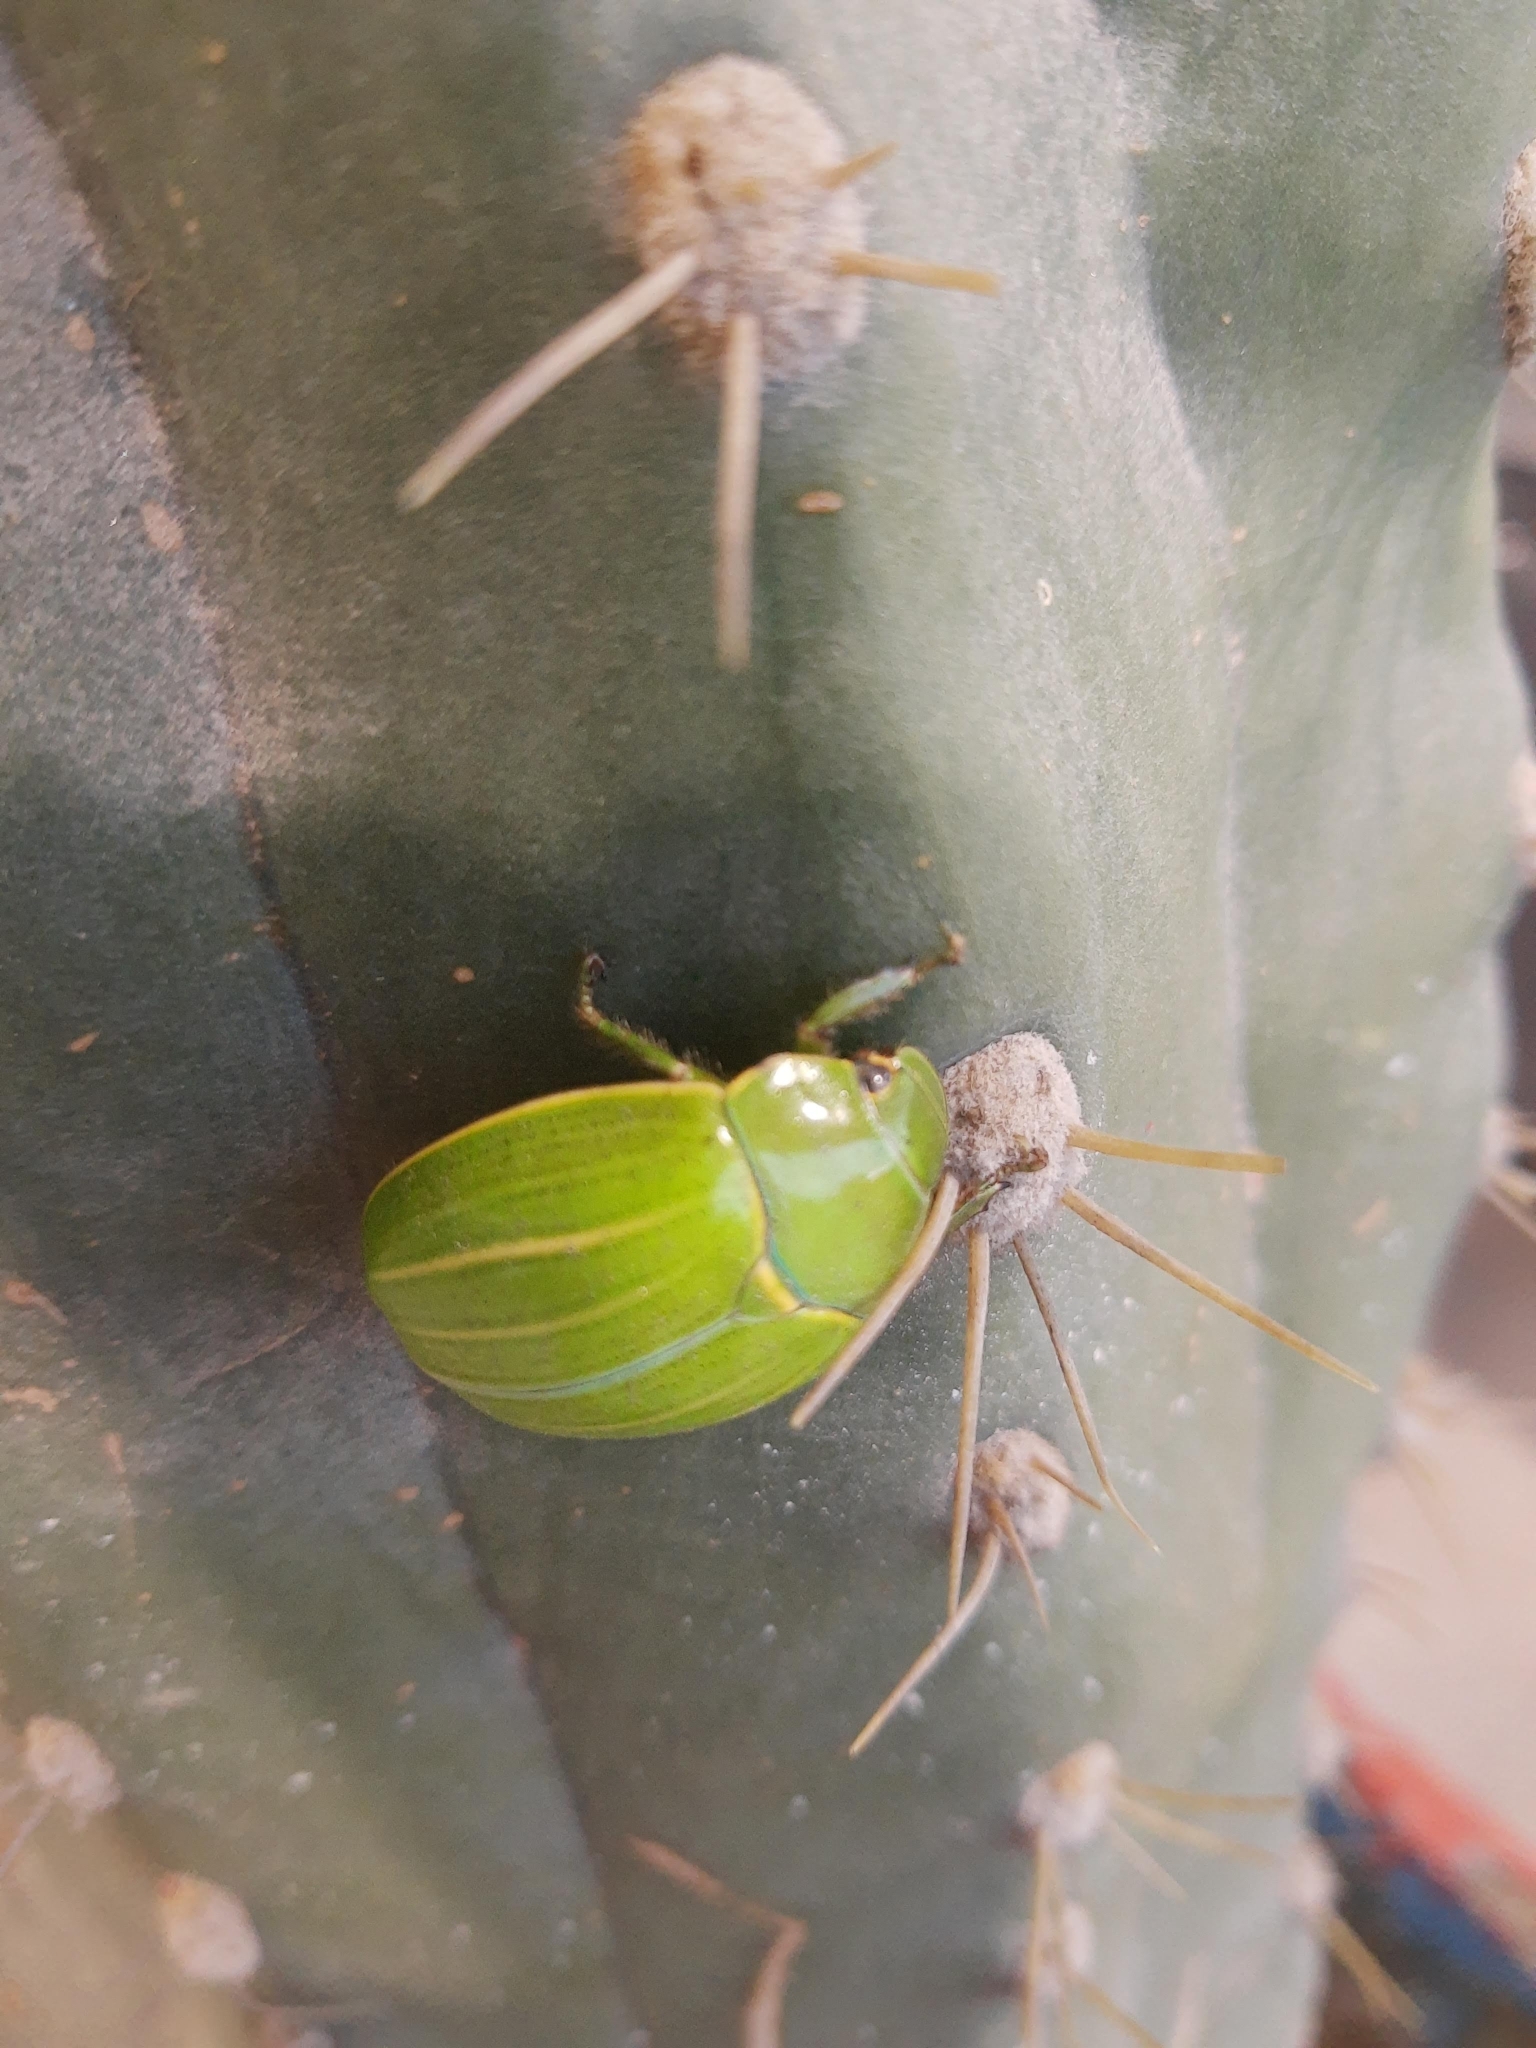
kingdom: Animalia
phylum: Arthropoda
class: Insecta
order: Coleoptera
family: Scarabaeidae
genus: Platycoelia
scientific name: Platycoelia inflata
